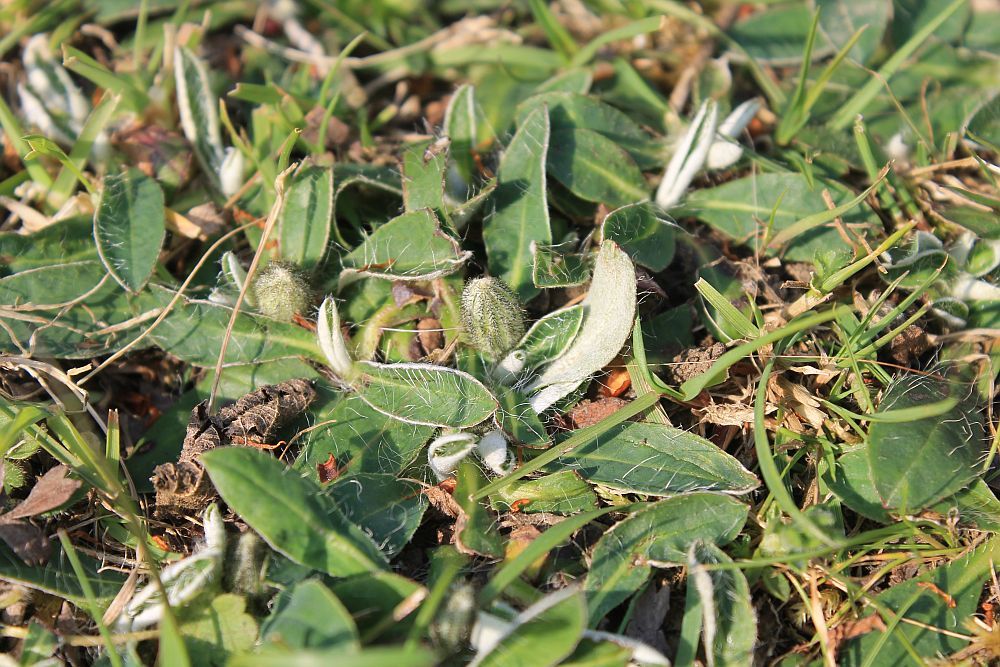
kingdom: Plantae
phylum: Tracheophyta
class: Magnoliopsida
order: Asterales
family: Asteraceae
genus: Pilosella
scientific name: Pilosella officinarum
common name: Mouse-ear hawkweed
